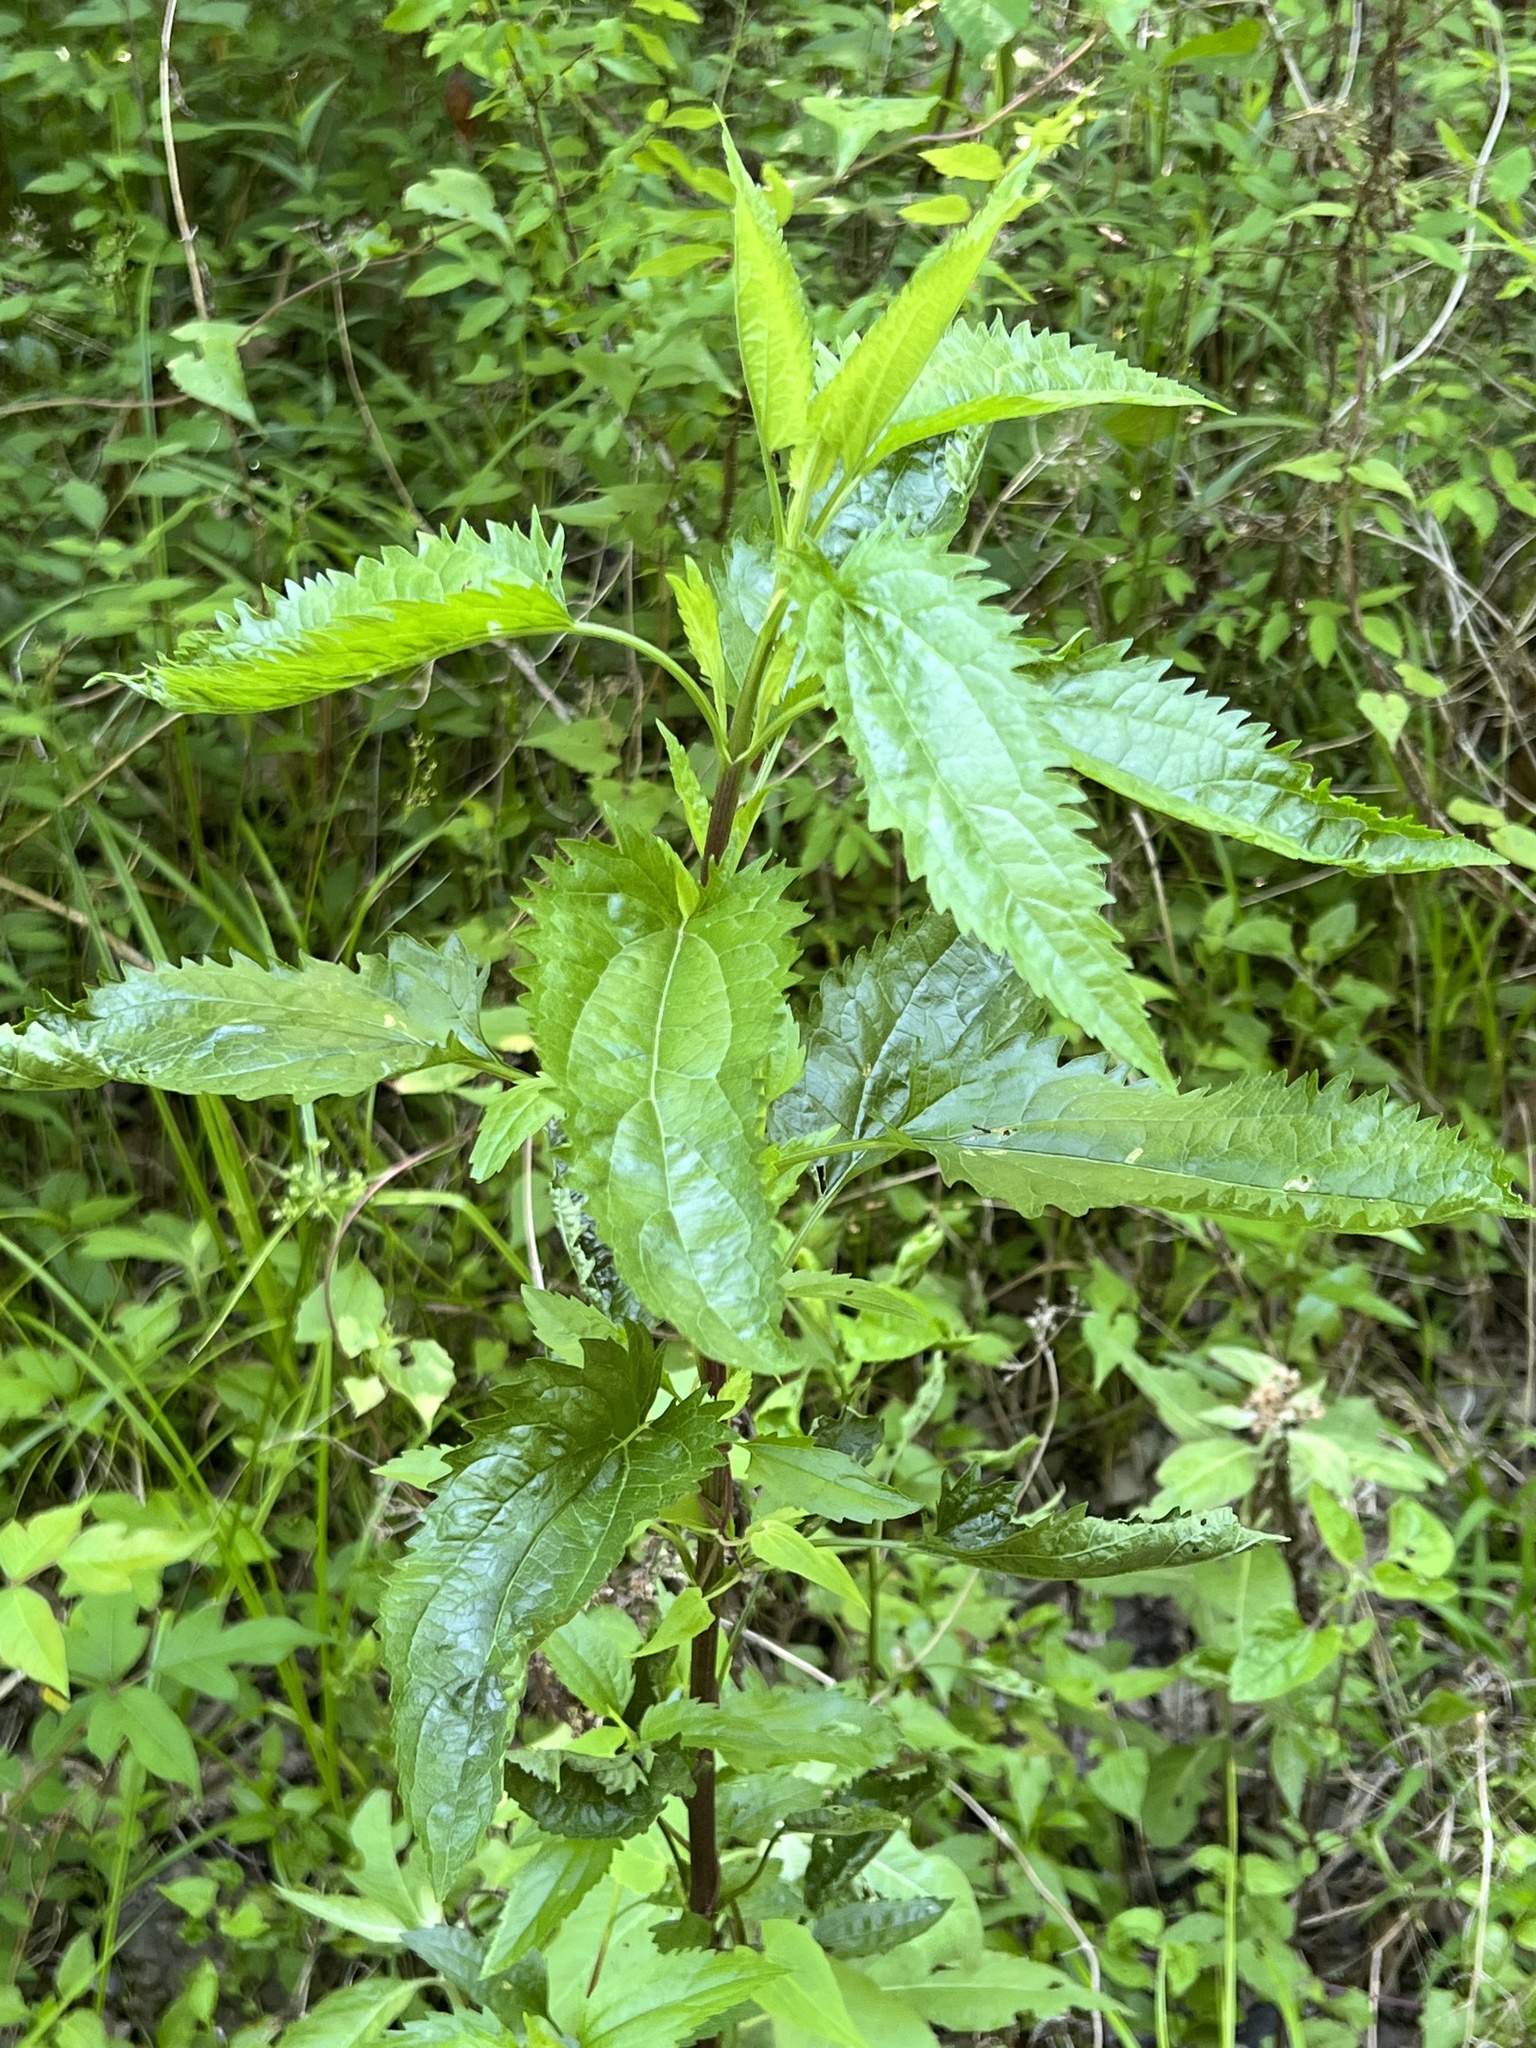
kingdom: Plantae
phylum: Tracheophyta
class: Magnoliopsida
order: Asterales
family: Asteraceae
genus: Eupatorium
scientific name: Eupatorium serotinum
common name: Late boneset
